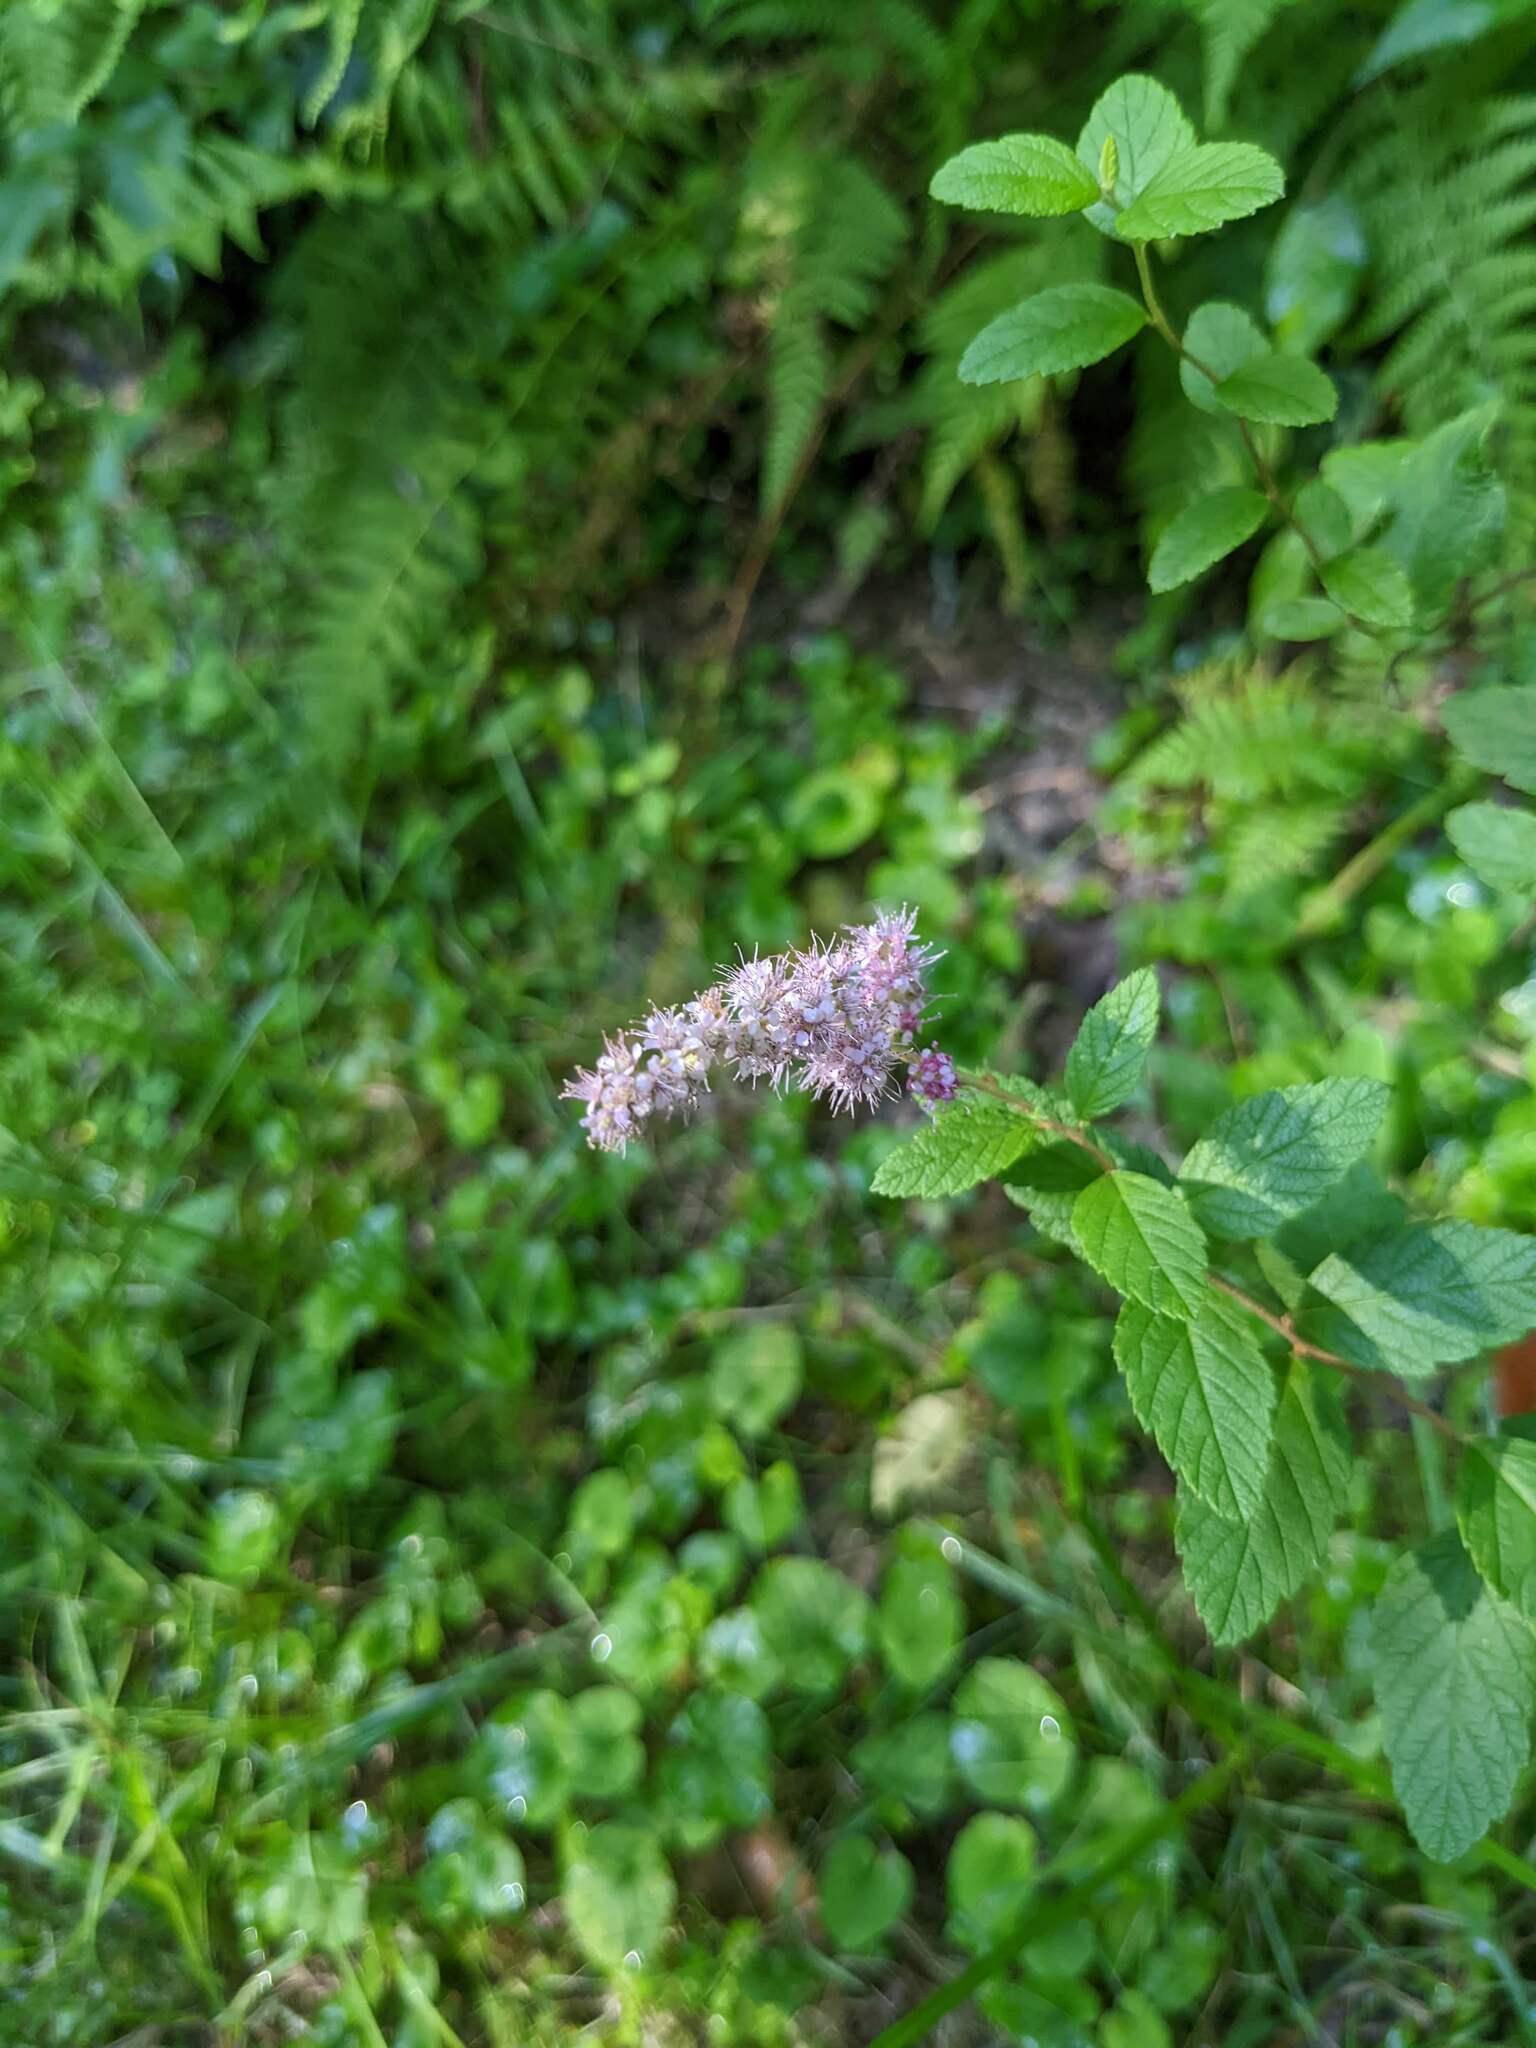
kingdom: Plantae
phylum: Tracheophyta
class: Magnoliopsida
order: Rosales
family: Rosaceae
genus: Spiraea
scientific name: Spiraea tomentosa
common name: Hardhack
